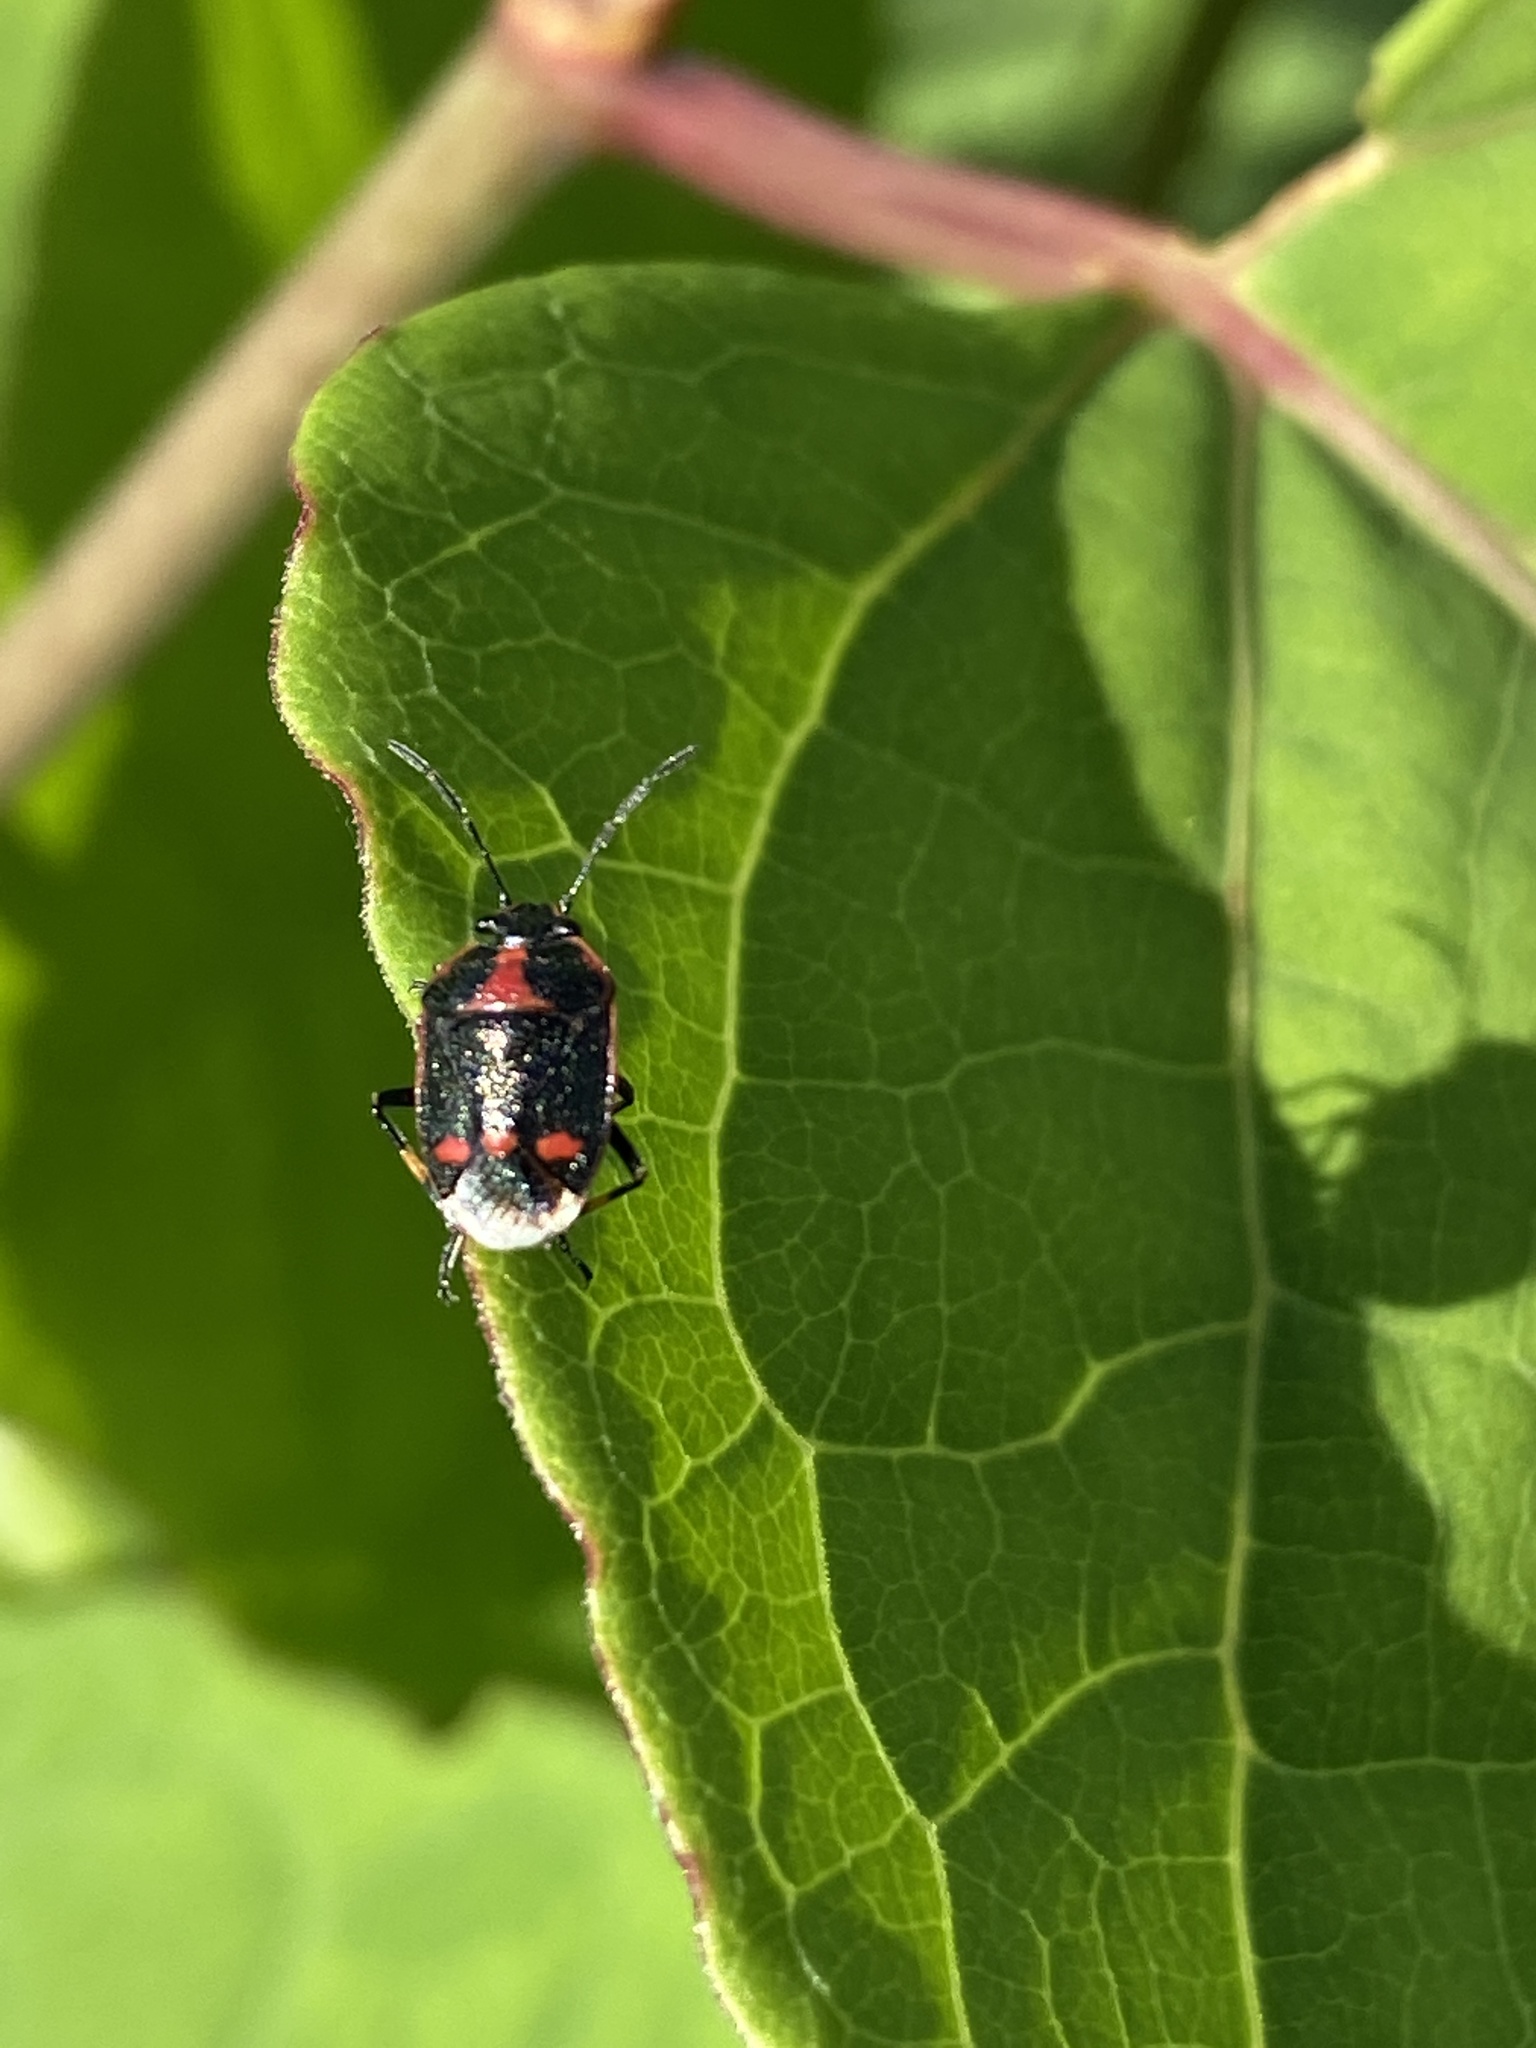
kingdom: Animalia
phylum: Arthropoda
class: Insecta
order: Hemiptera
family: Pentatomidae
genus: Eurydema
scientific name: Eurydema oleracea
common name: Cabbage bug
